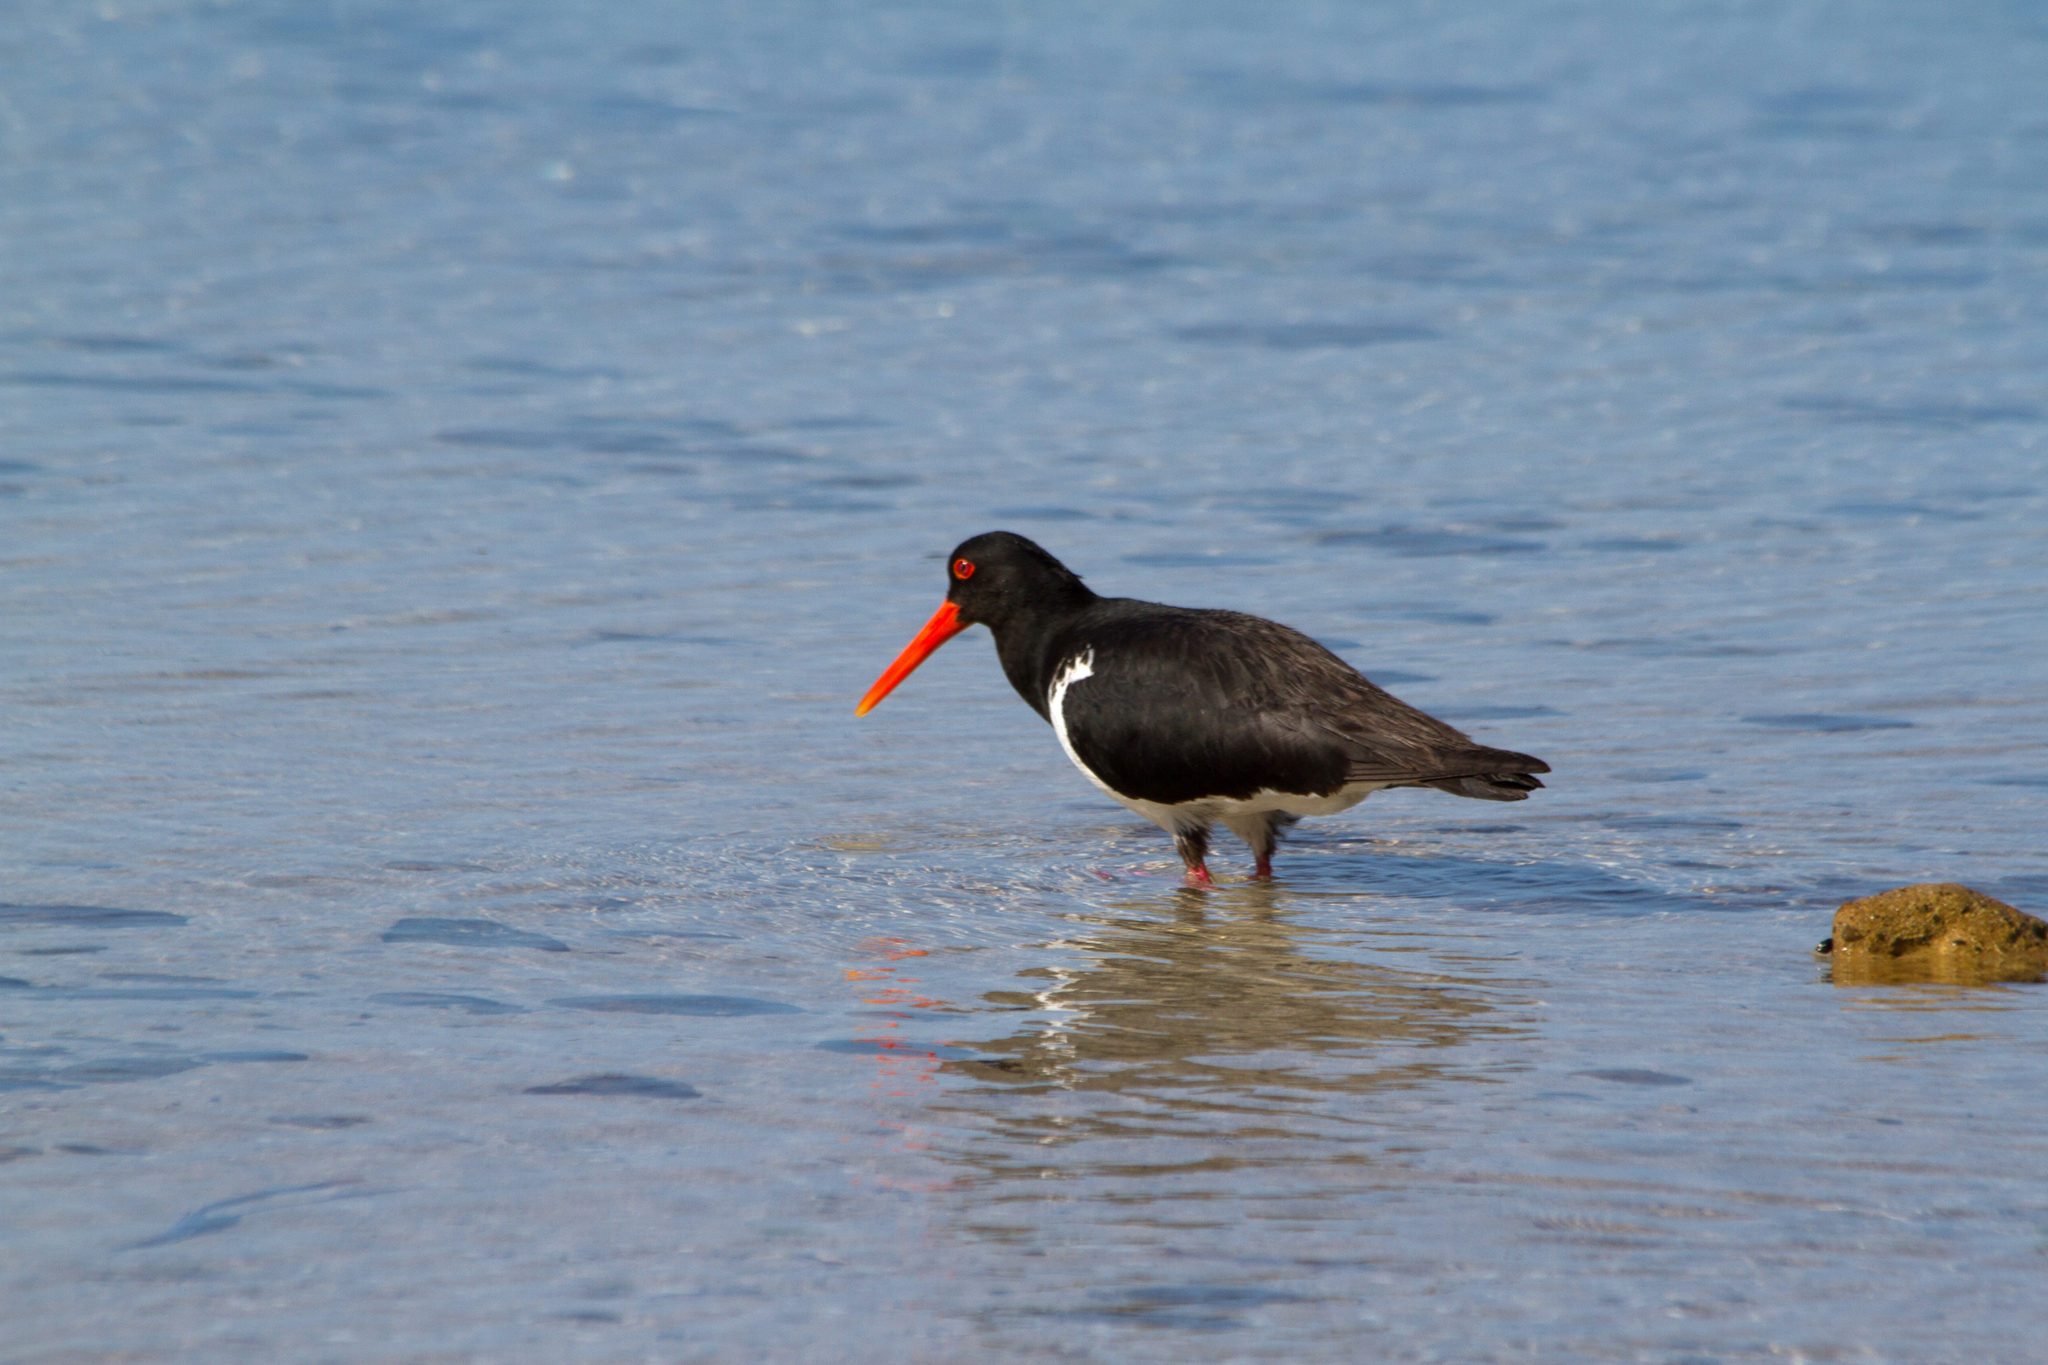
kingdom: Animalia
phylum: Chordata
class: Aves
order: Charadriiformes
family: Haematopodidae
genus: Haematopus
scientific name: Haematopus longirostris
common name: Pied oystercatcher
